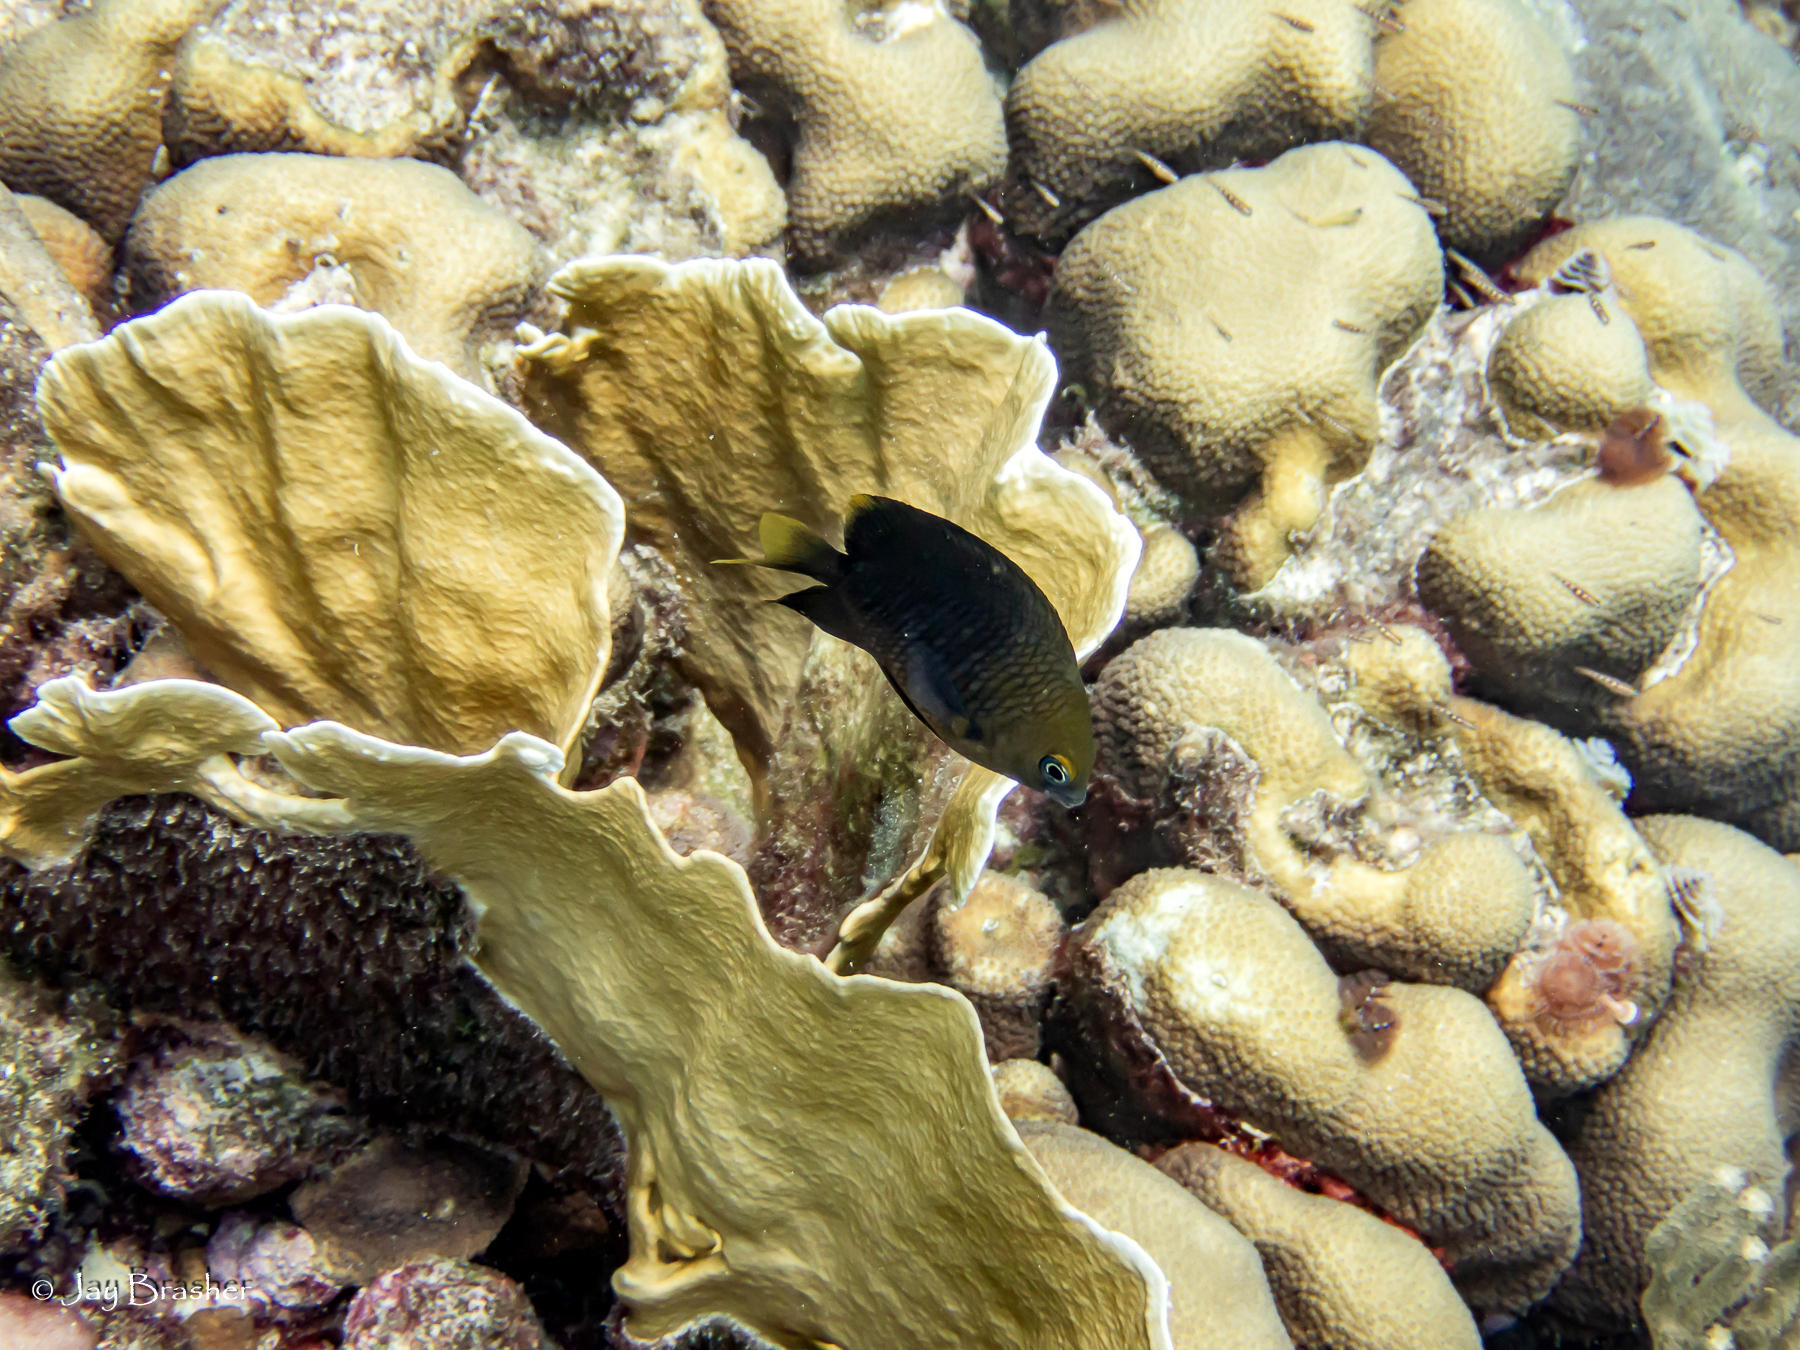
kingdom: Animalia
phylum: Cnidaria
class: Anthozoa
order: Scleractinia
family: Merulinidae
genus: Orbicella
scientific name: Orbicella annularis
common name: Boulder star coral
